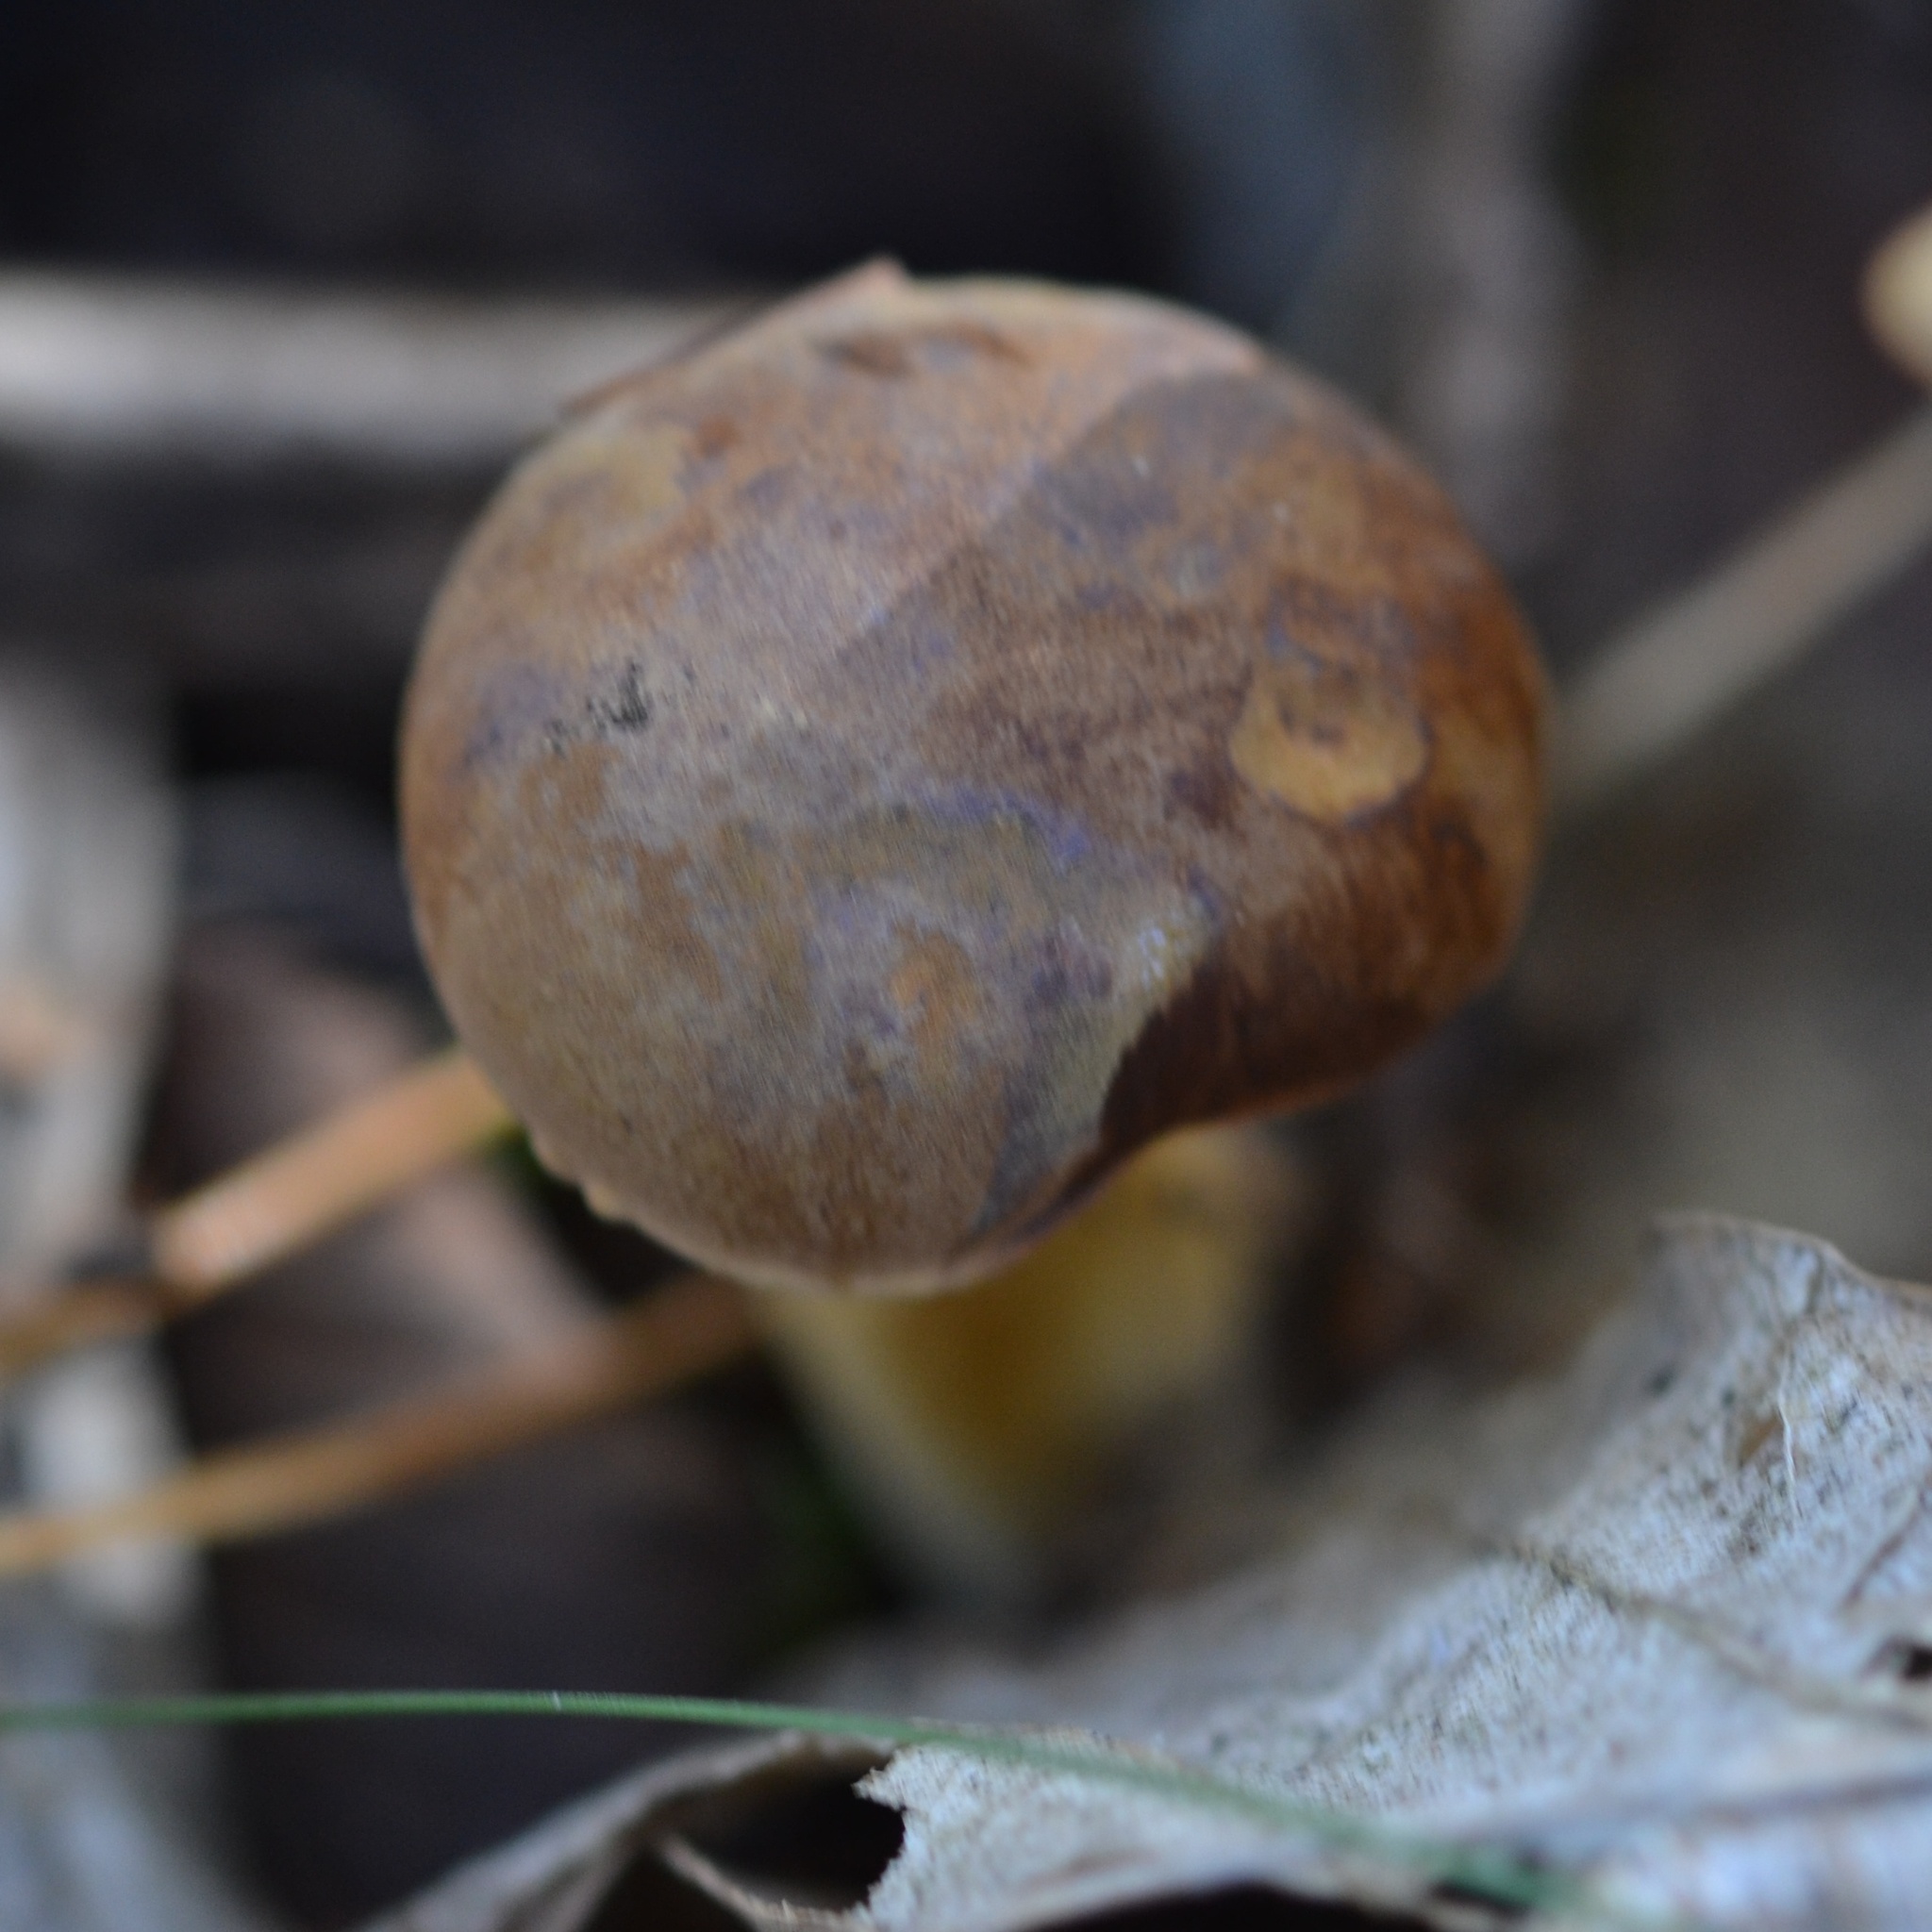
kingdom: Fungi
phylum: Basidiomycota
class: Agaricomycetes
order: Boletales
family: Boletaceae
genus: Imleria
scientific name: Imleria badia
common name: Bay bolete
